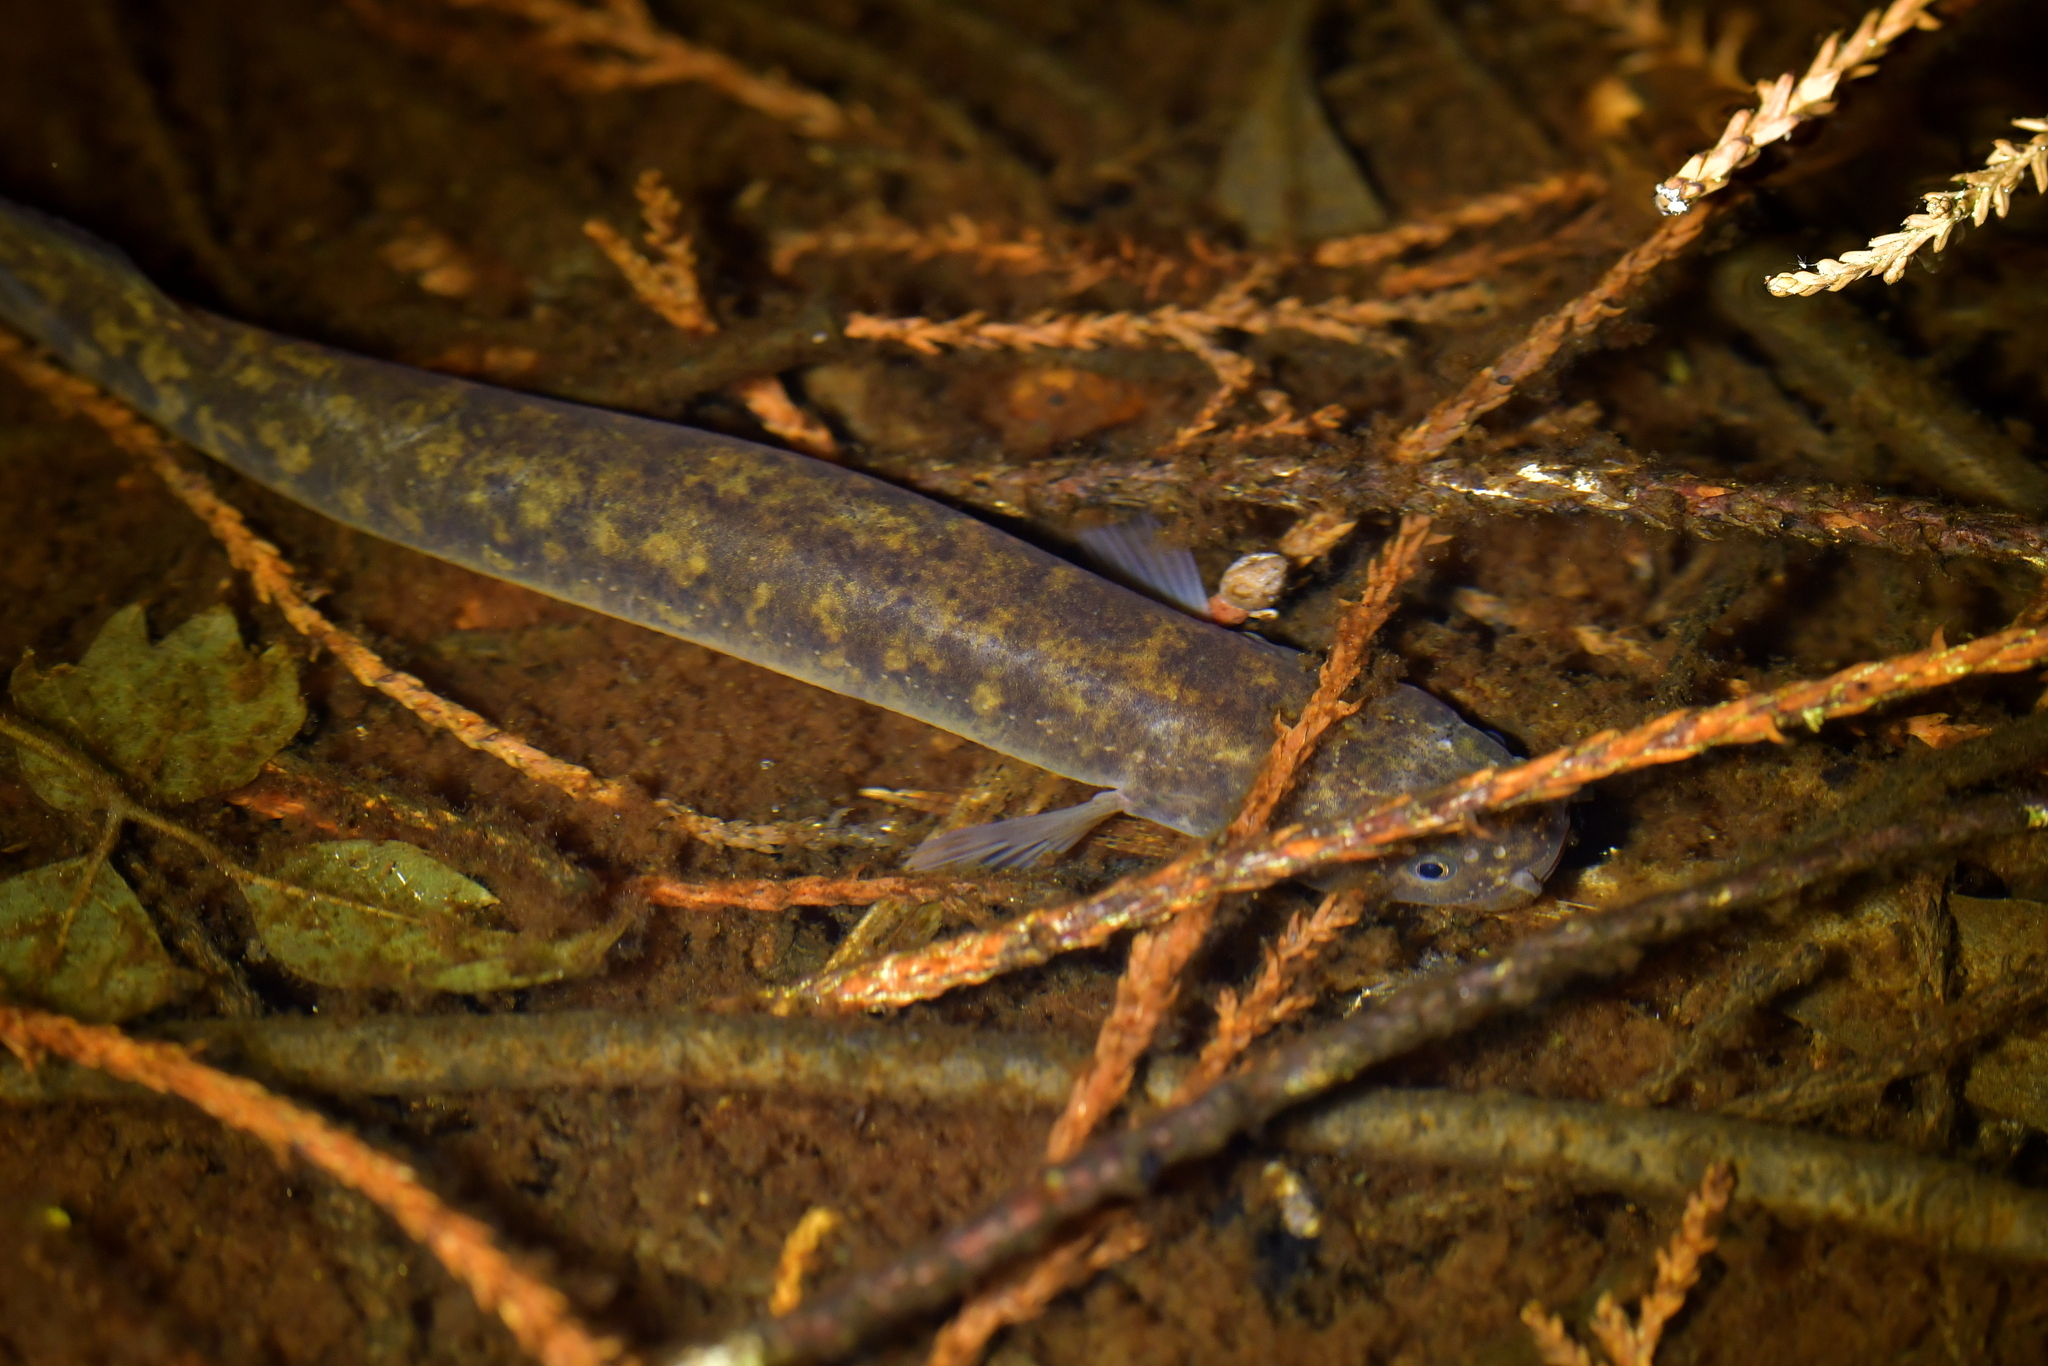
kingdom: Animalia
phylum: Chordata
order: Osmeriformes
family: Galaxiidae
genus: Neochanna
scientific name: Neochanna apoda
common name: Brown mudfish
